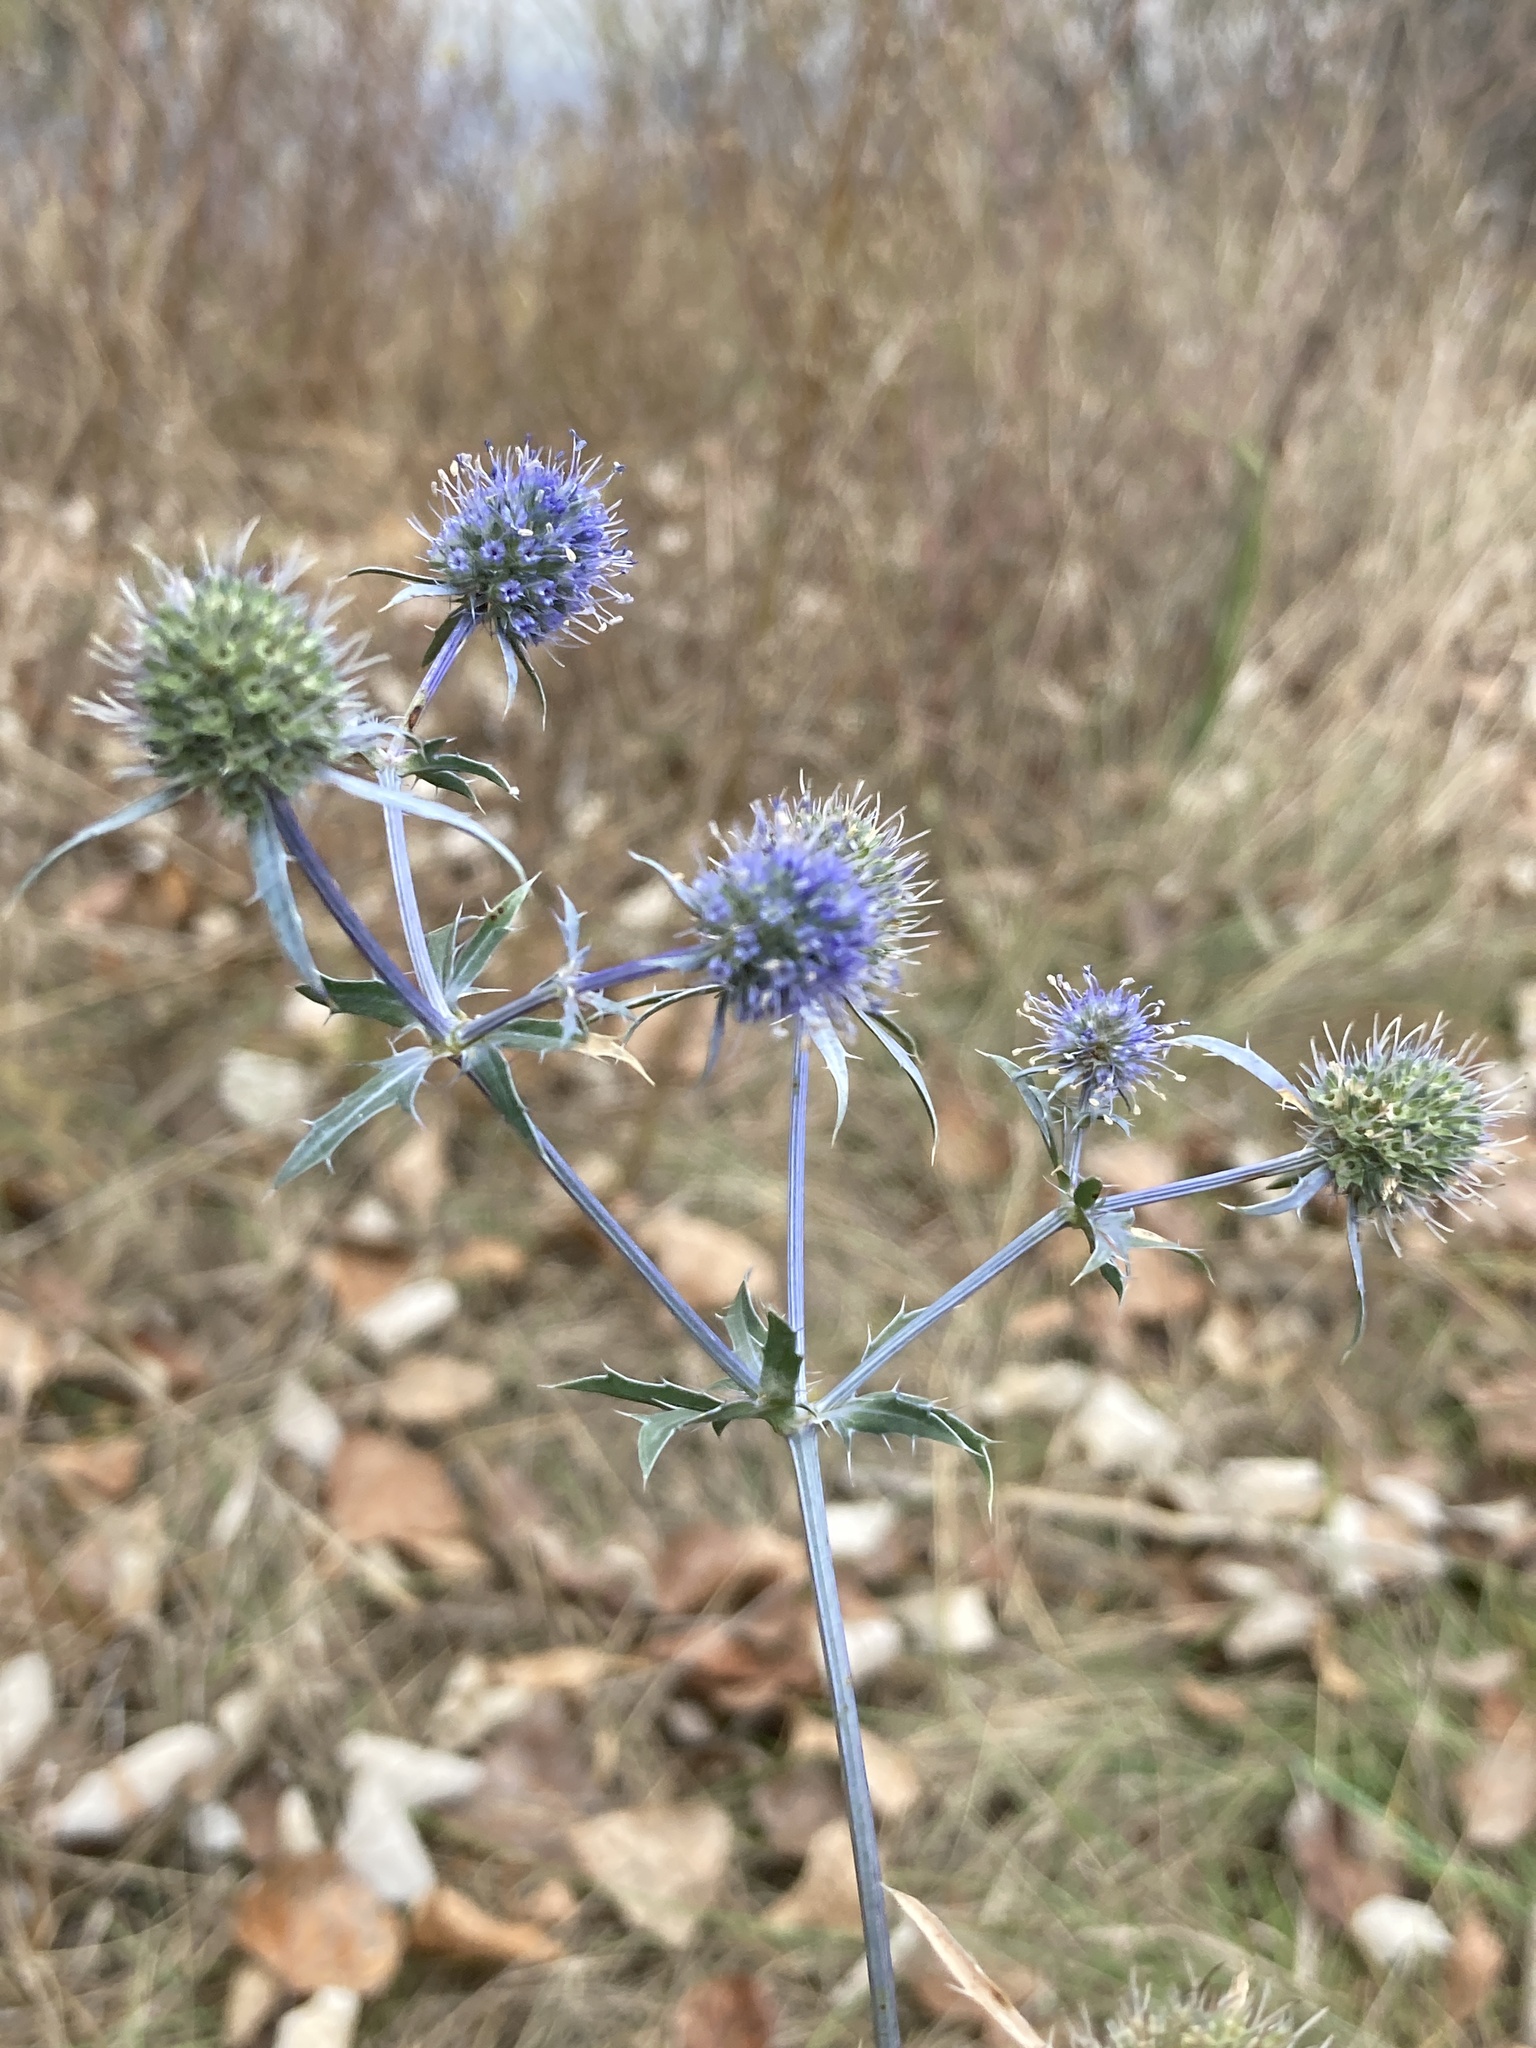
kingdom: Plantae
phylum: Tracheophyta
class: Magnoliopsida
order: Apiales
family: Apiaceae
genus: Eryngium
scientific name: Eryngium planum
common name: Blue eryngo
